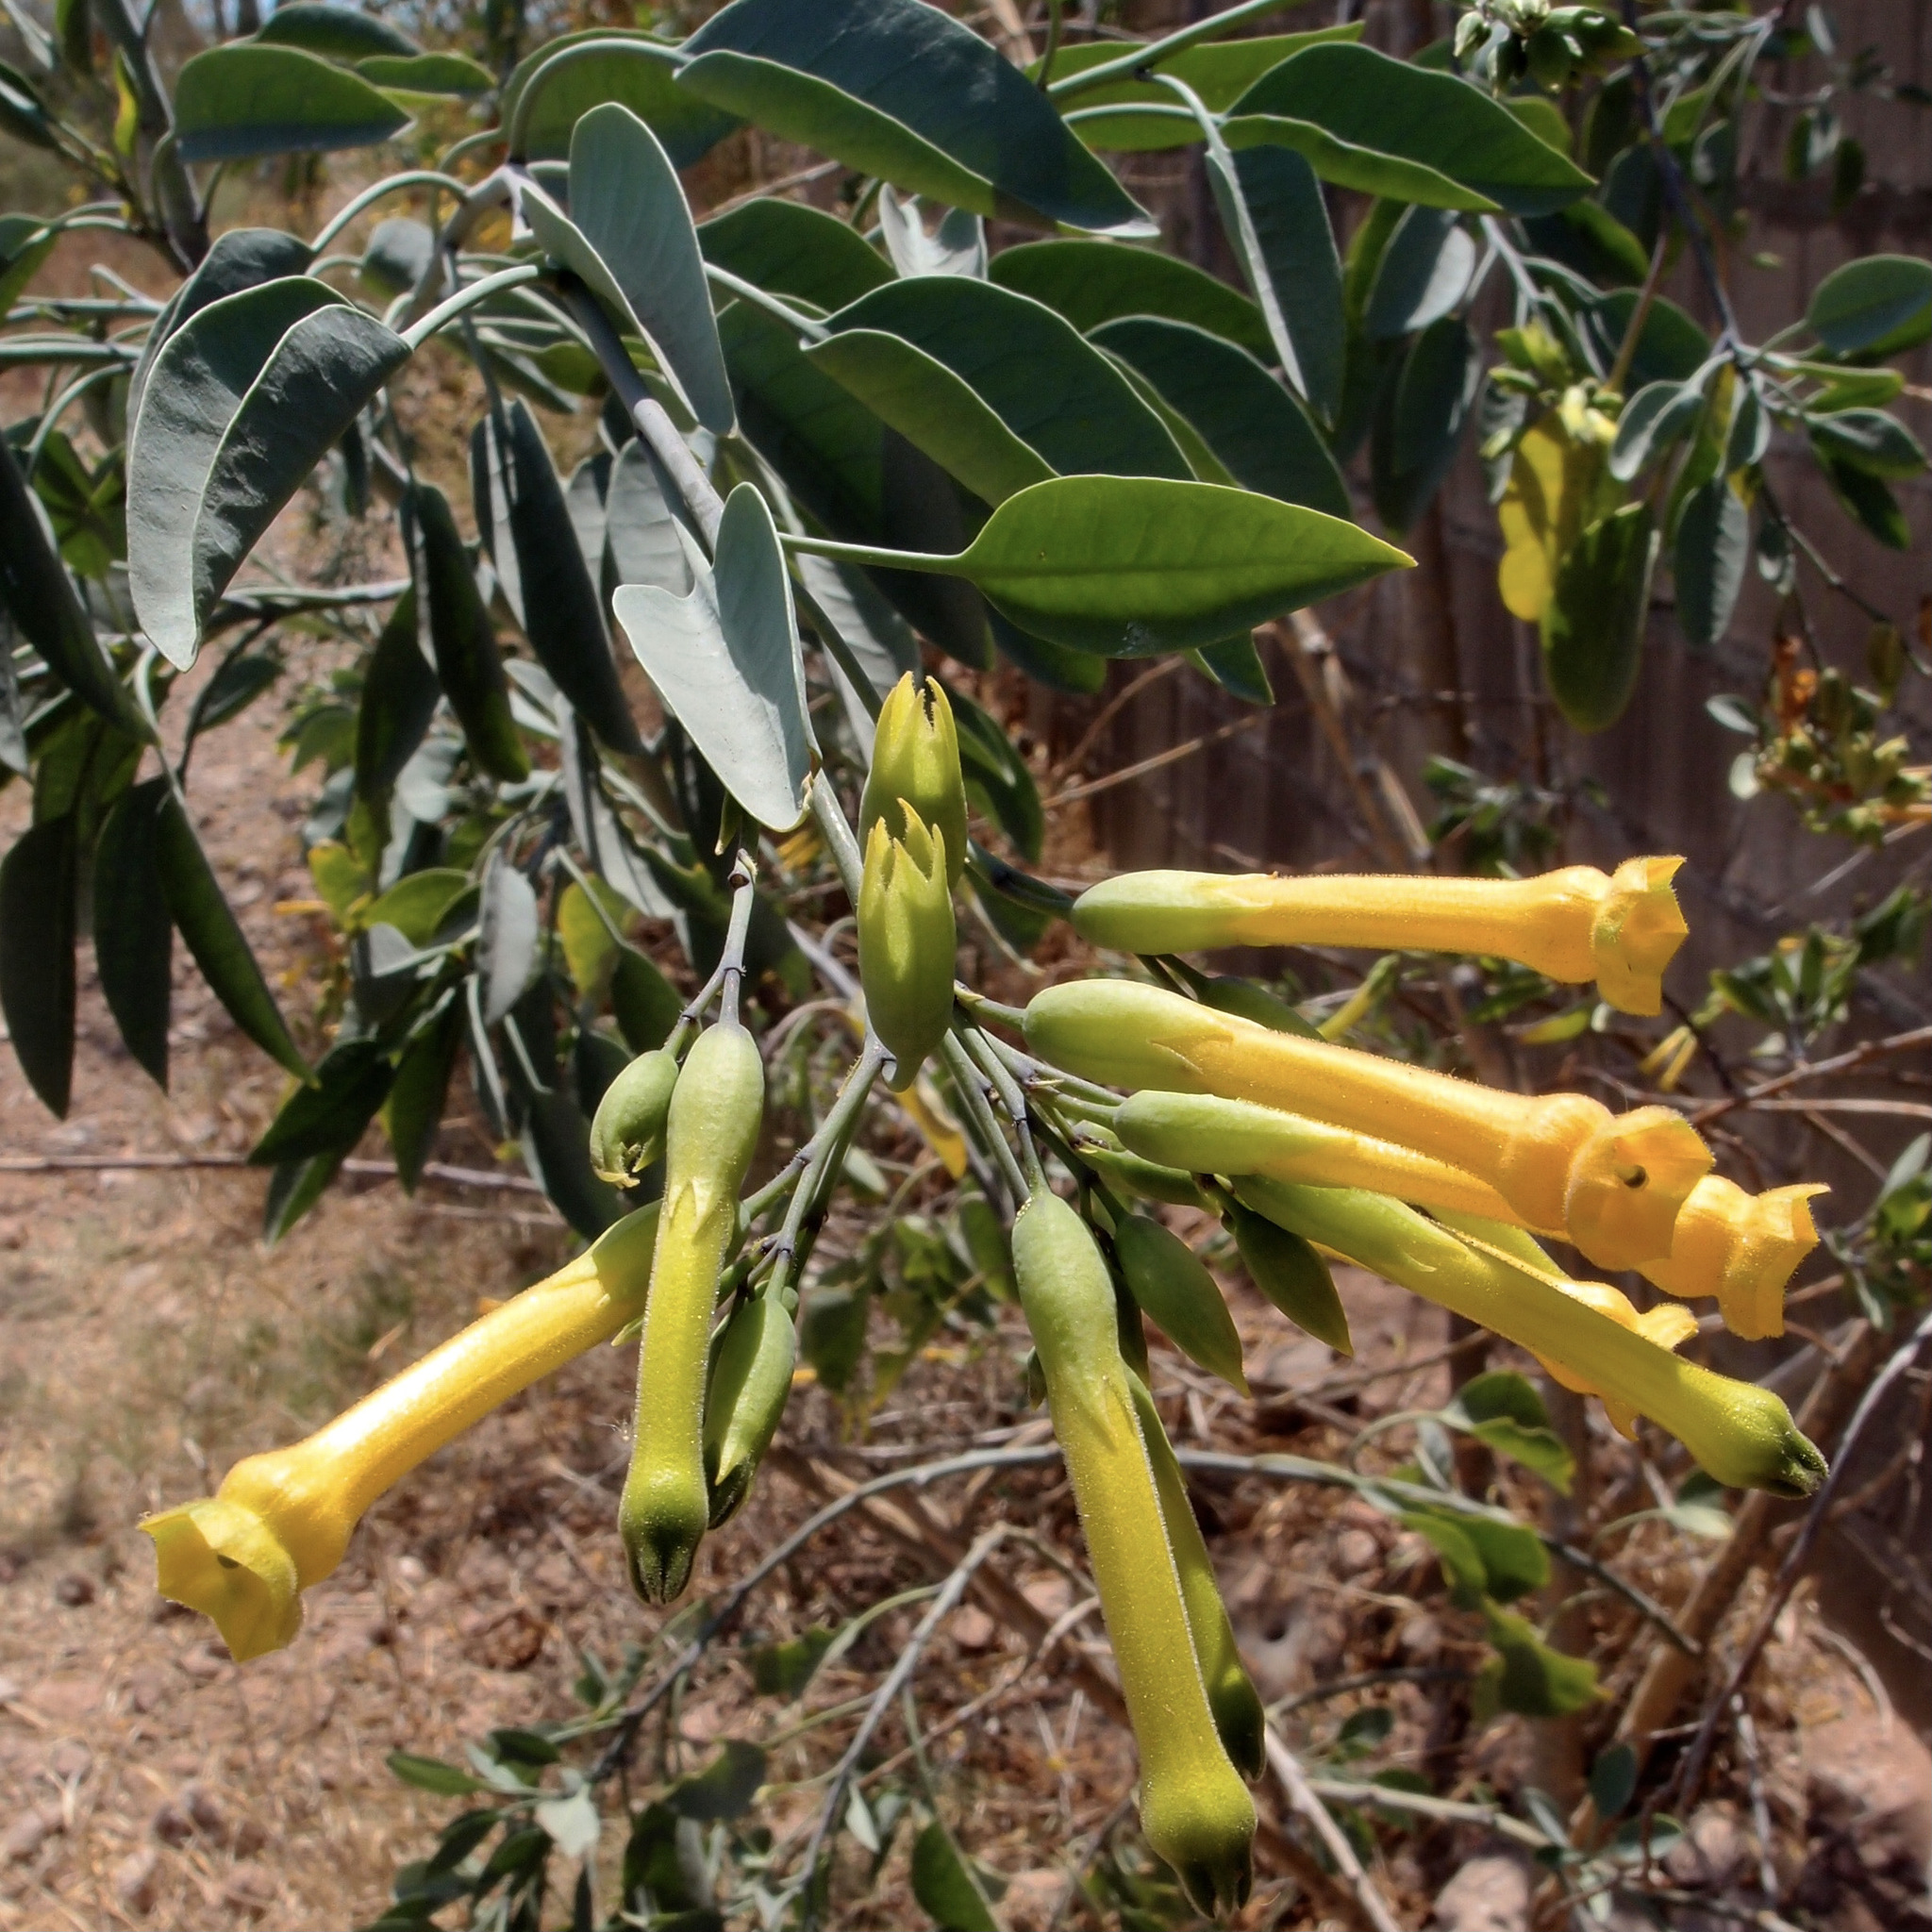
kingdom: Plantae
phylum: Tracheophyta
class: Magnoliopsida
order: Solanales
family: Solanaceae
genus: Nicotiana
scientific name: Nicotiana glauca
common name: Tree tobacco
